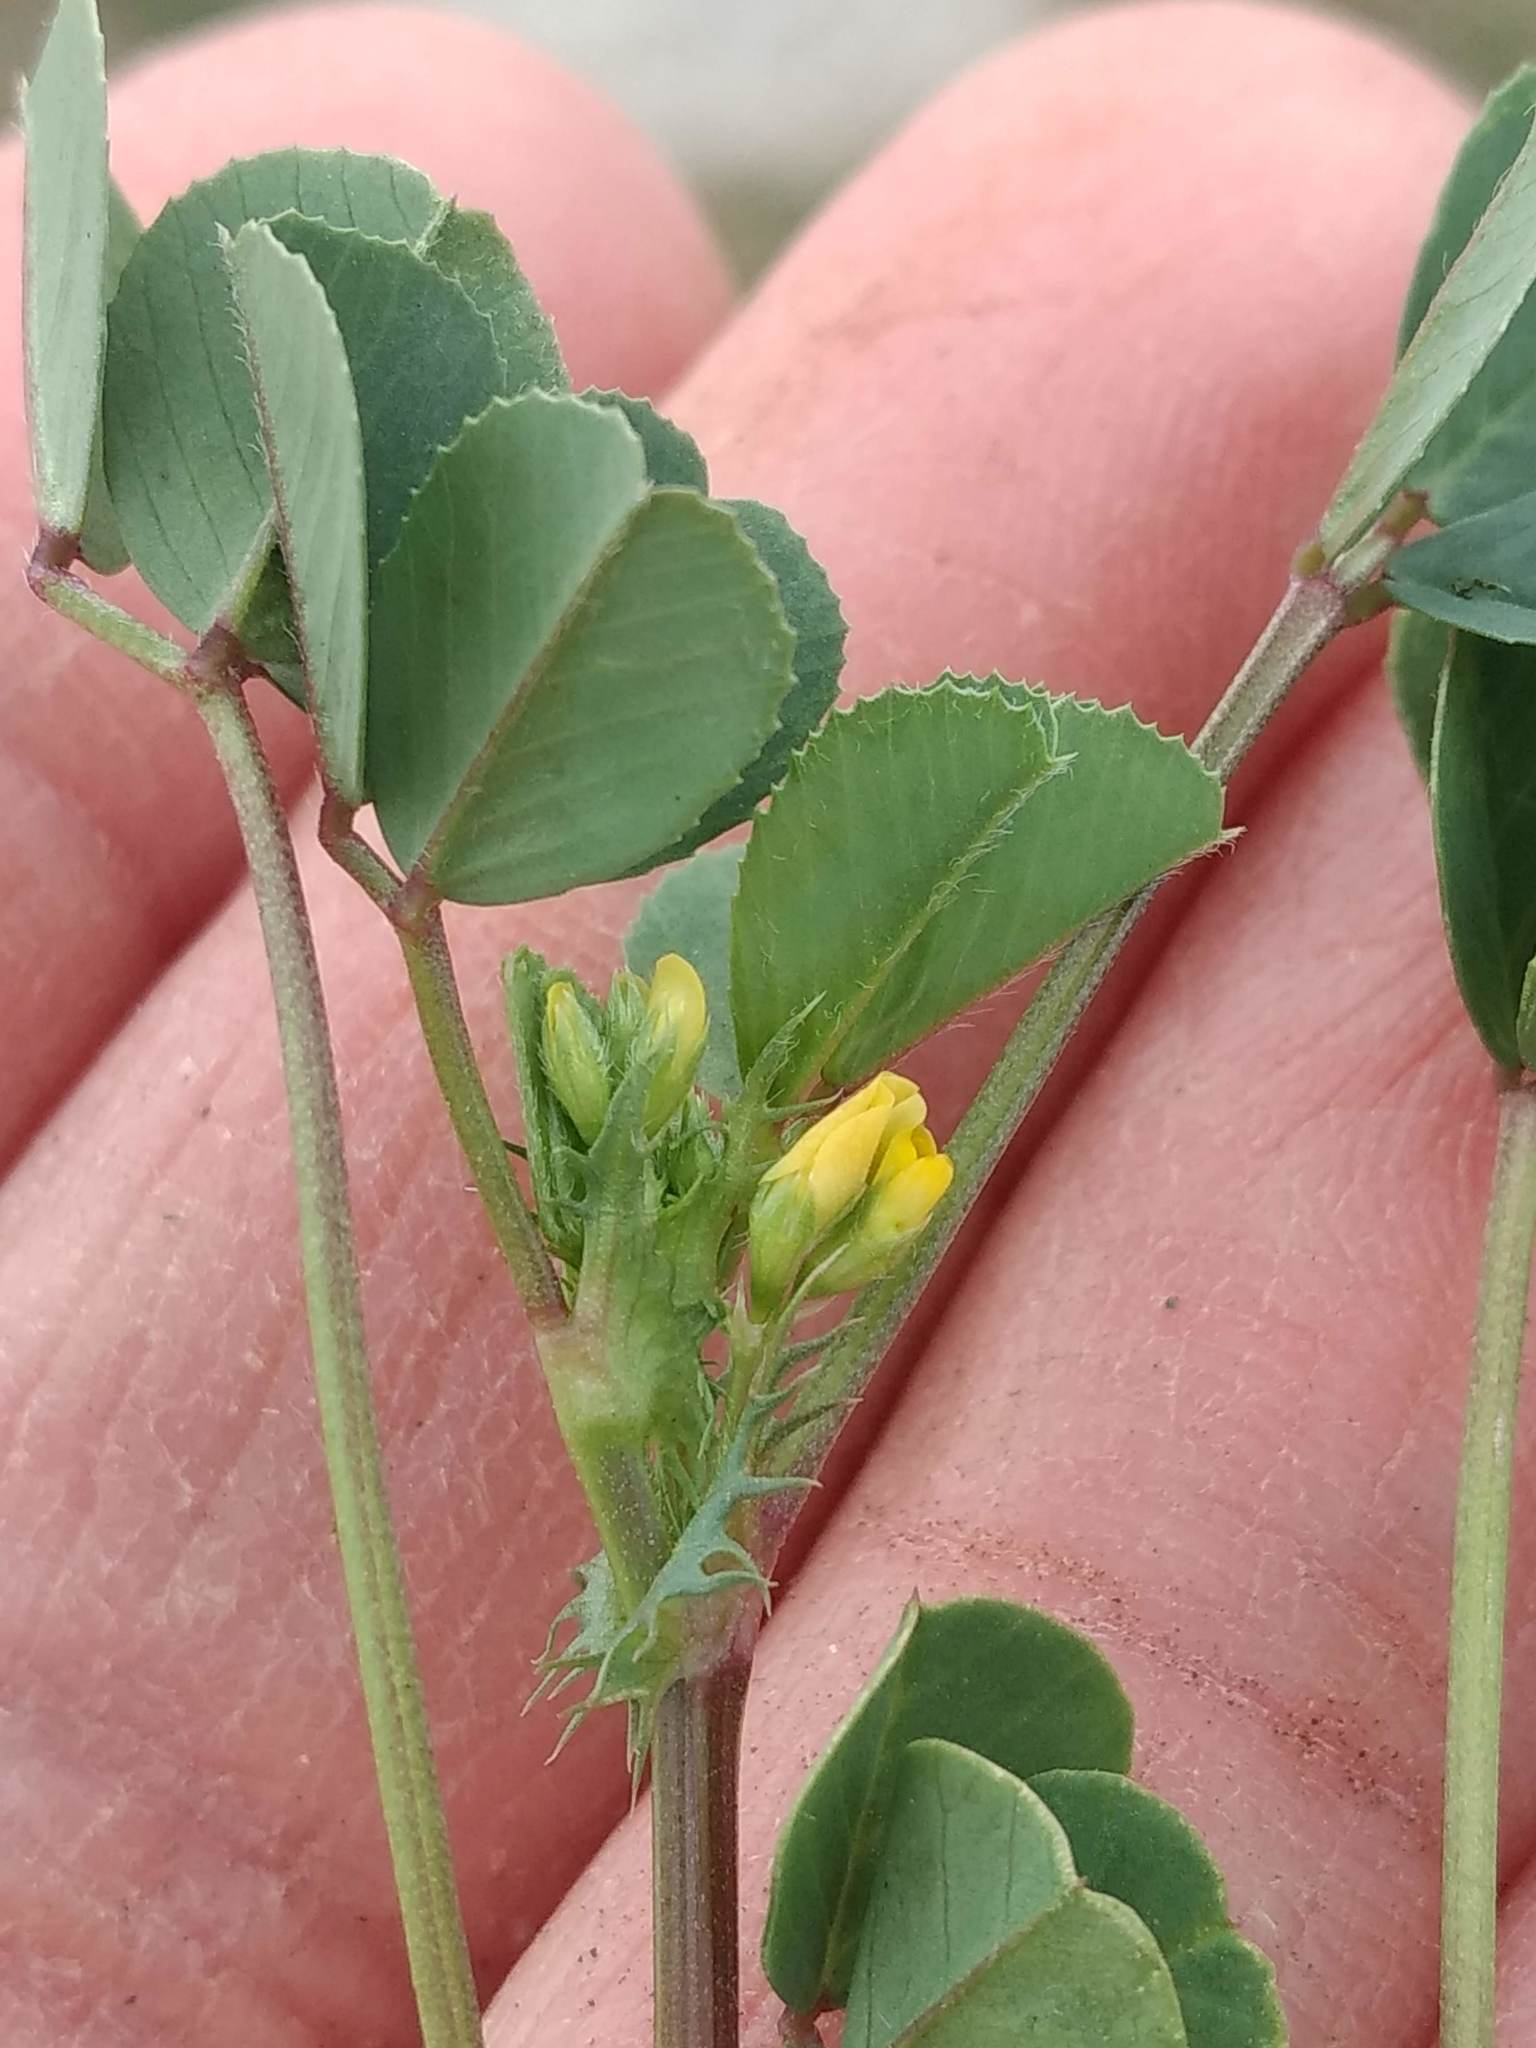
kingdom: Plantae
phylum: Tracheophyta
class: Magnoliopsida
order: Fabales
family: Fabaceae
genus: Medicago
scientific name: Medicago polymorpha
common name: Burclover
